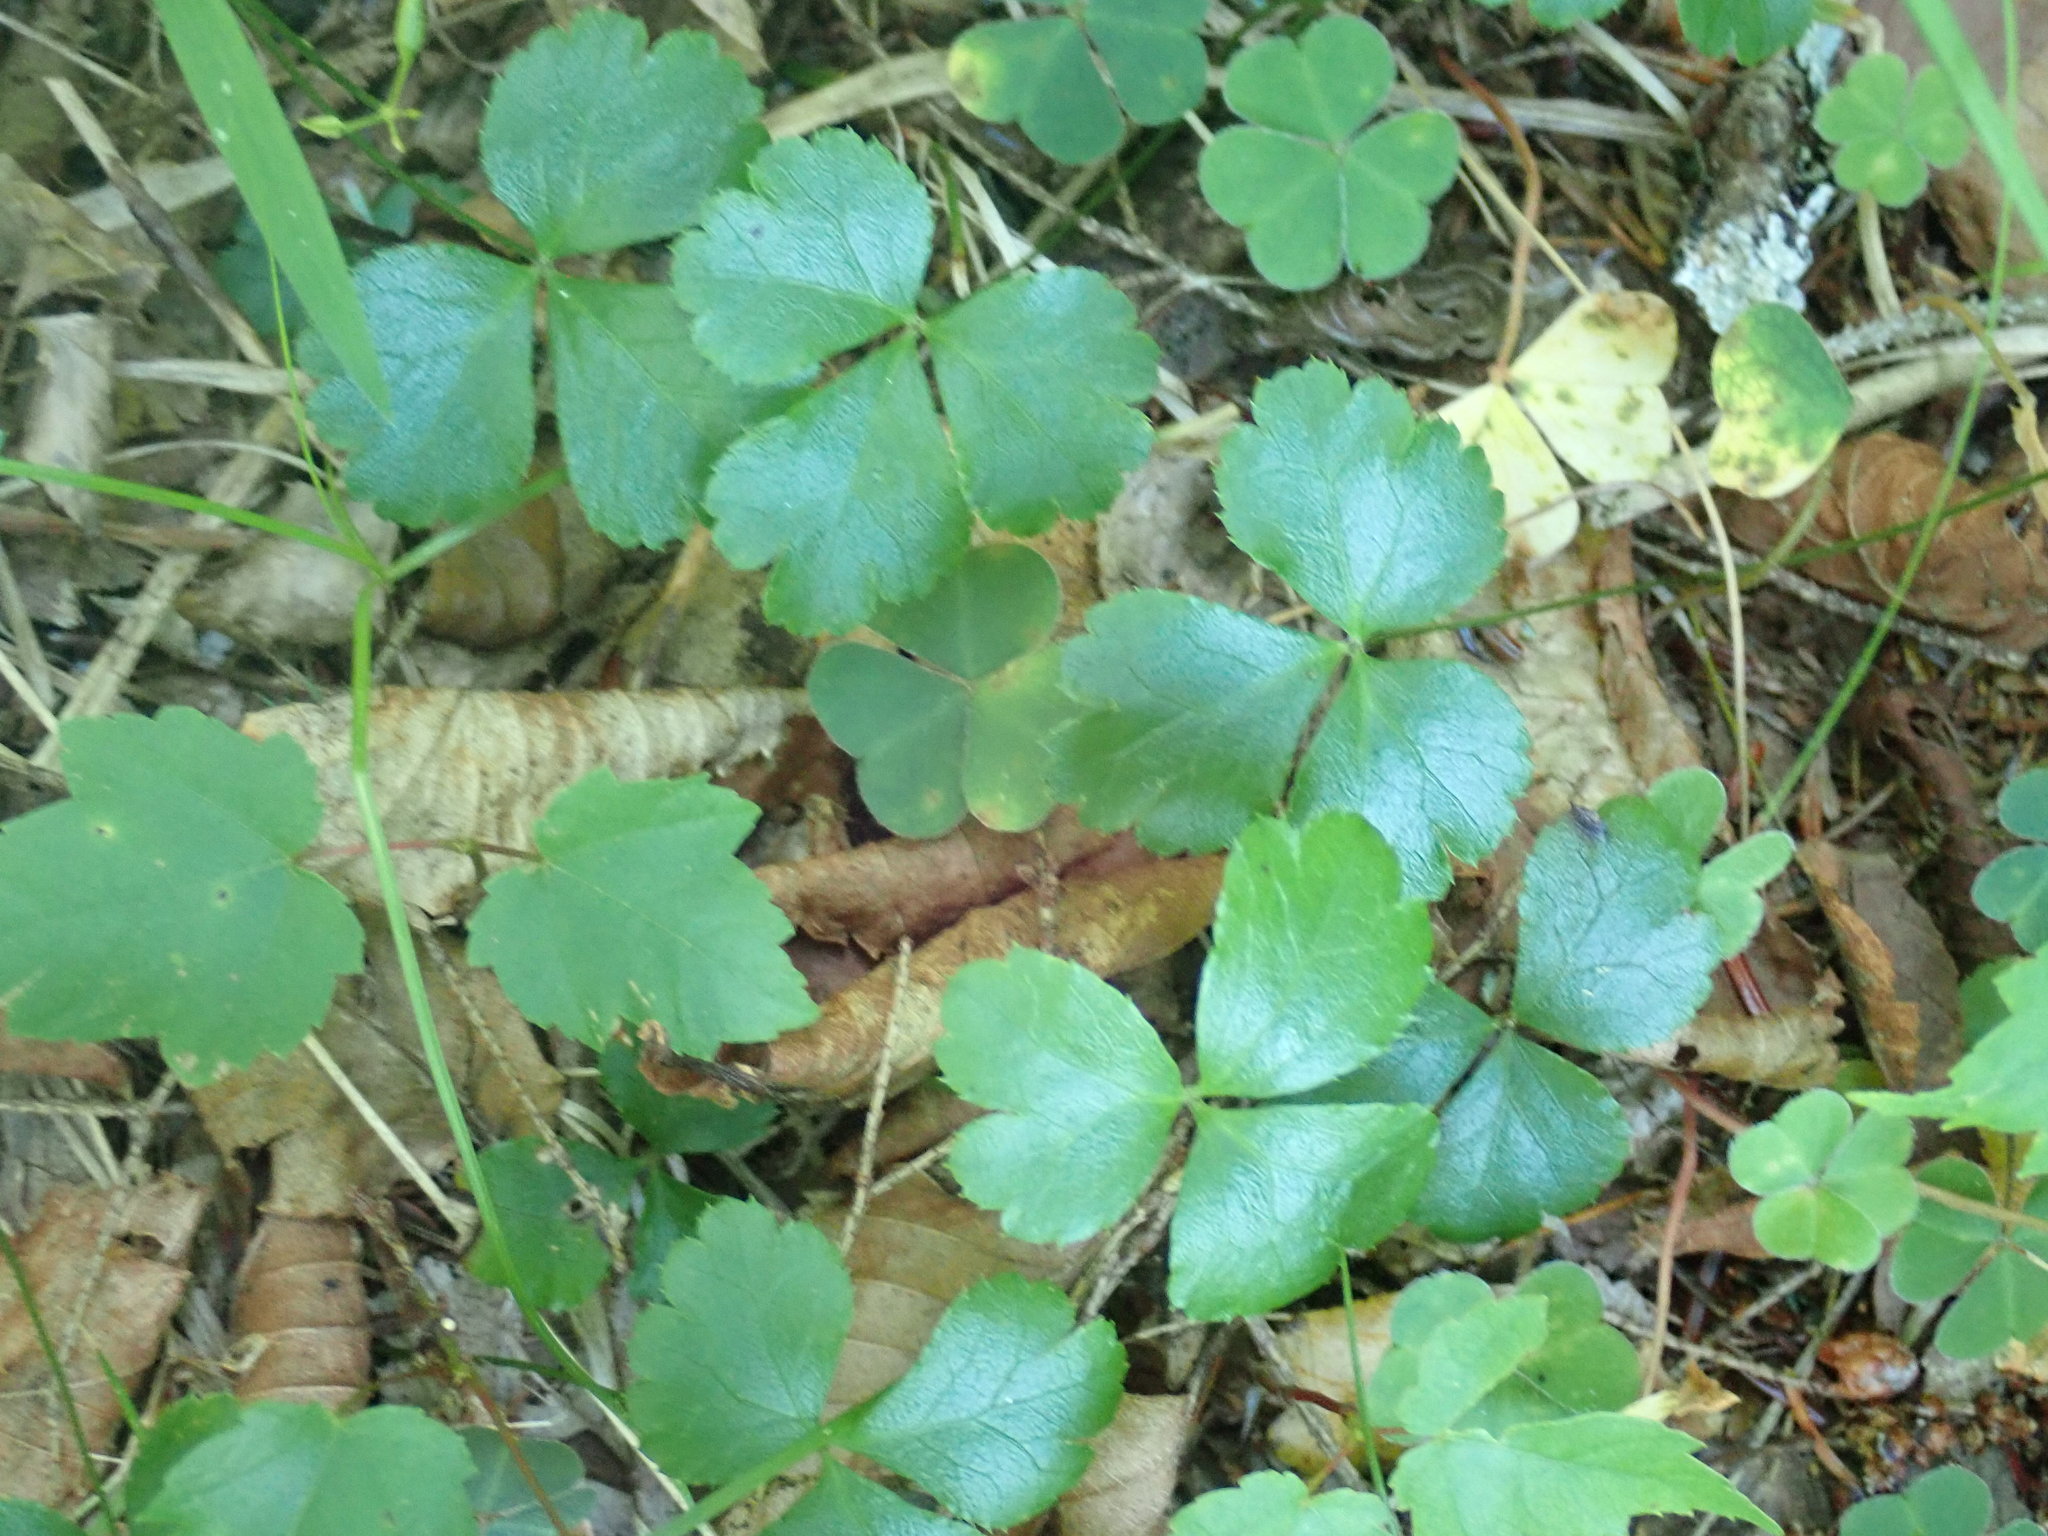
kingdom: Plantae
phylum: Tracheophyta
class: Magnoliopsida
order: Ranunculales
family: Ranunculaceae
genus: Coptis
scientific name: Coptis trifolia
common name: Canker-root
